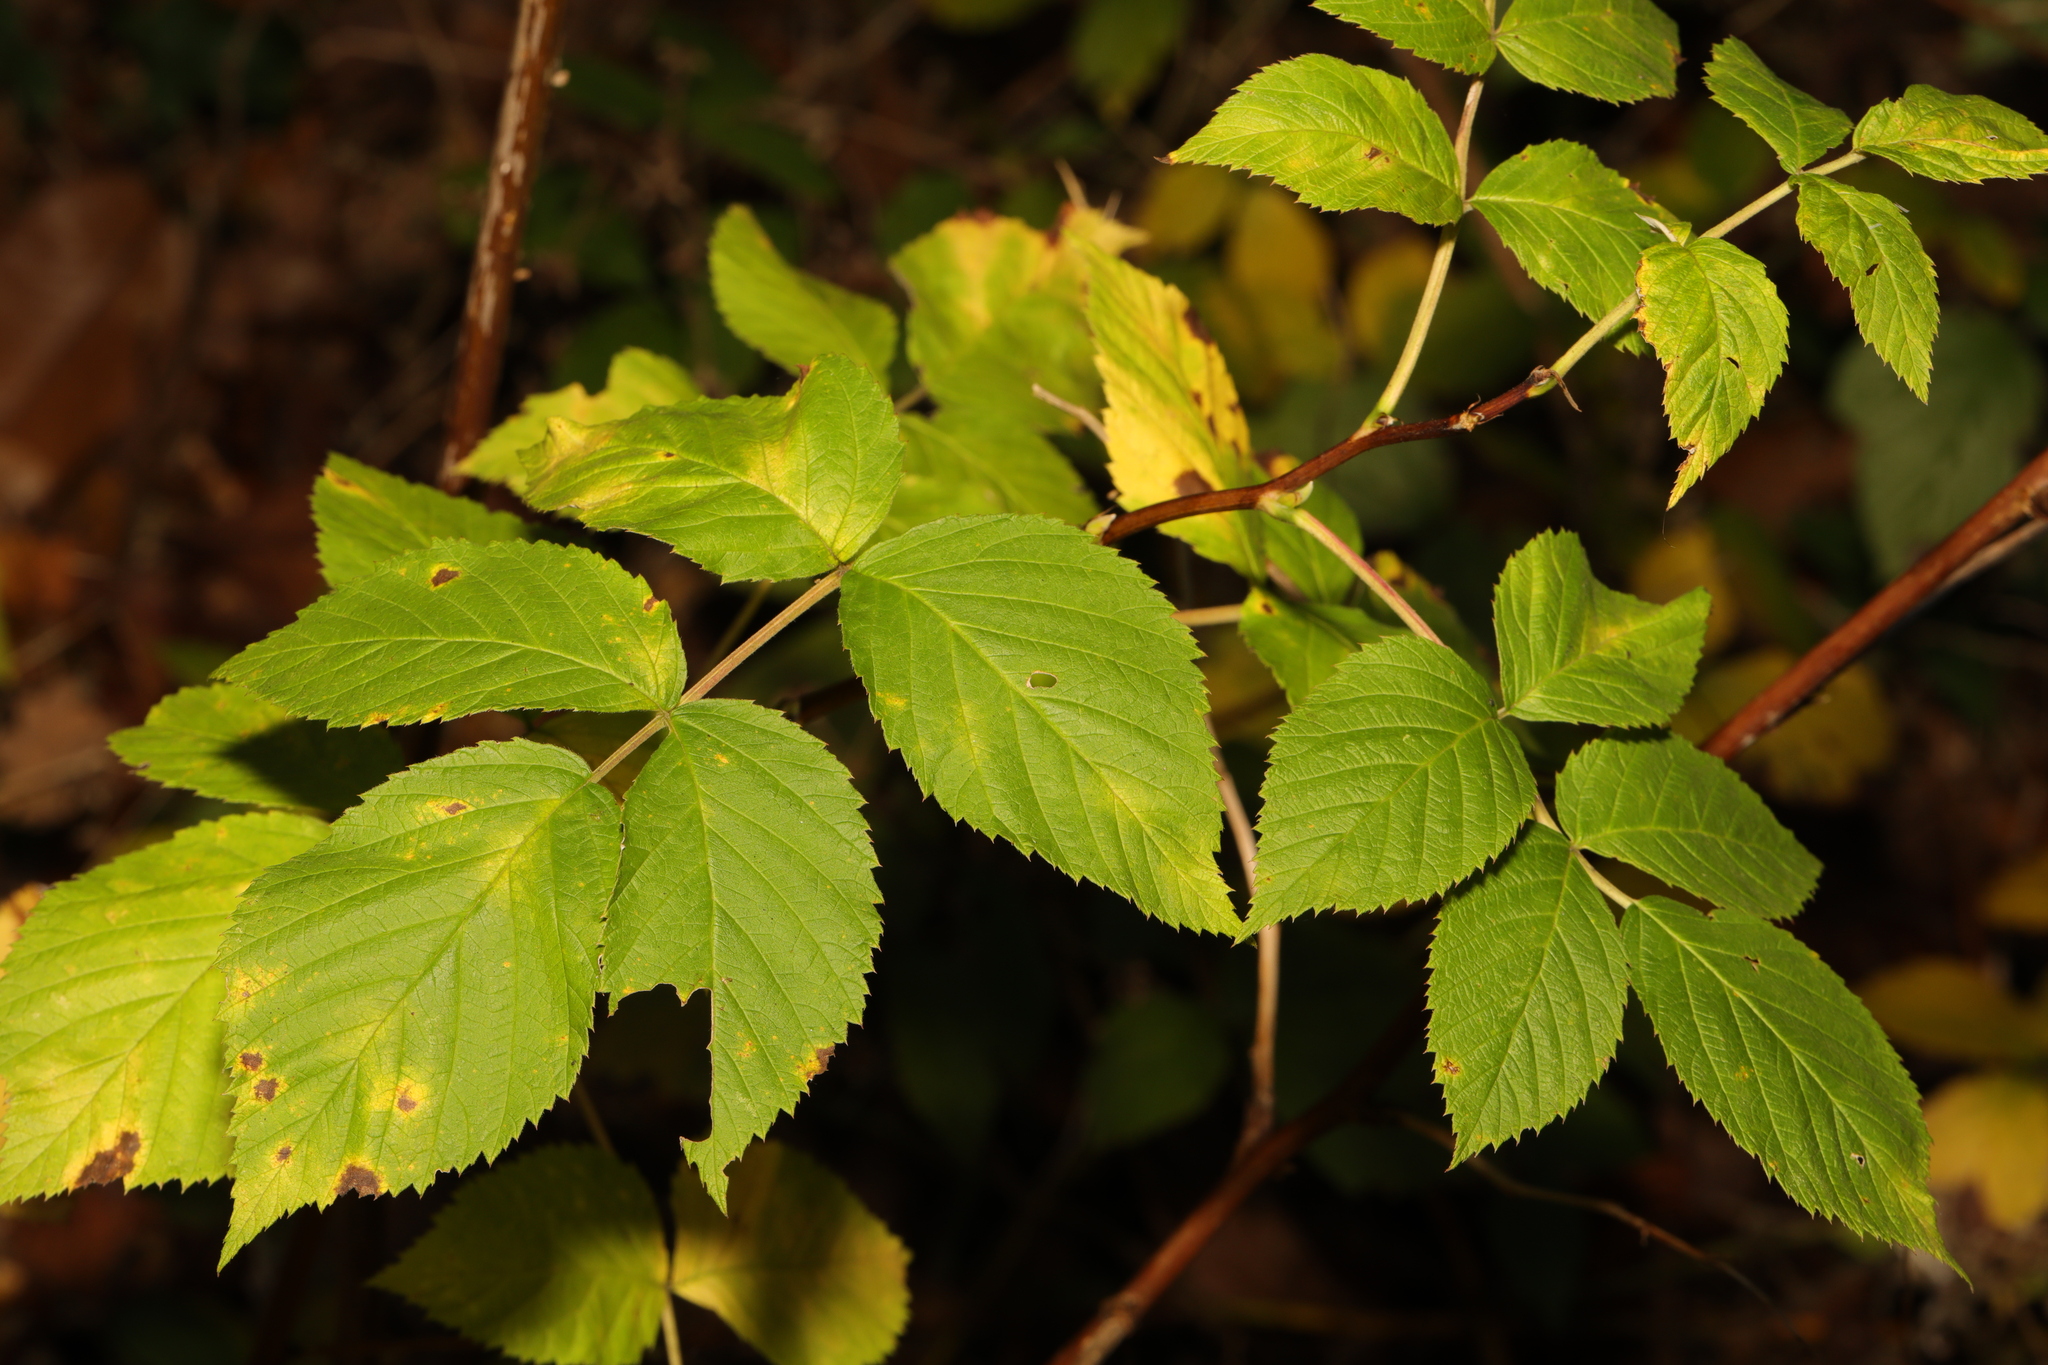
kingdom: Plantae
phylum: Tracheophyta
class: Magnoliopsida
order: Rosales
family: Rosaceae
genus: Rubus
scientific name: Rubus idaeus
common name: Raspberry
